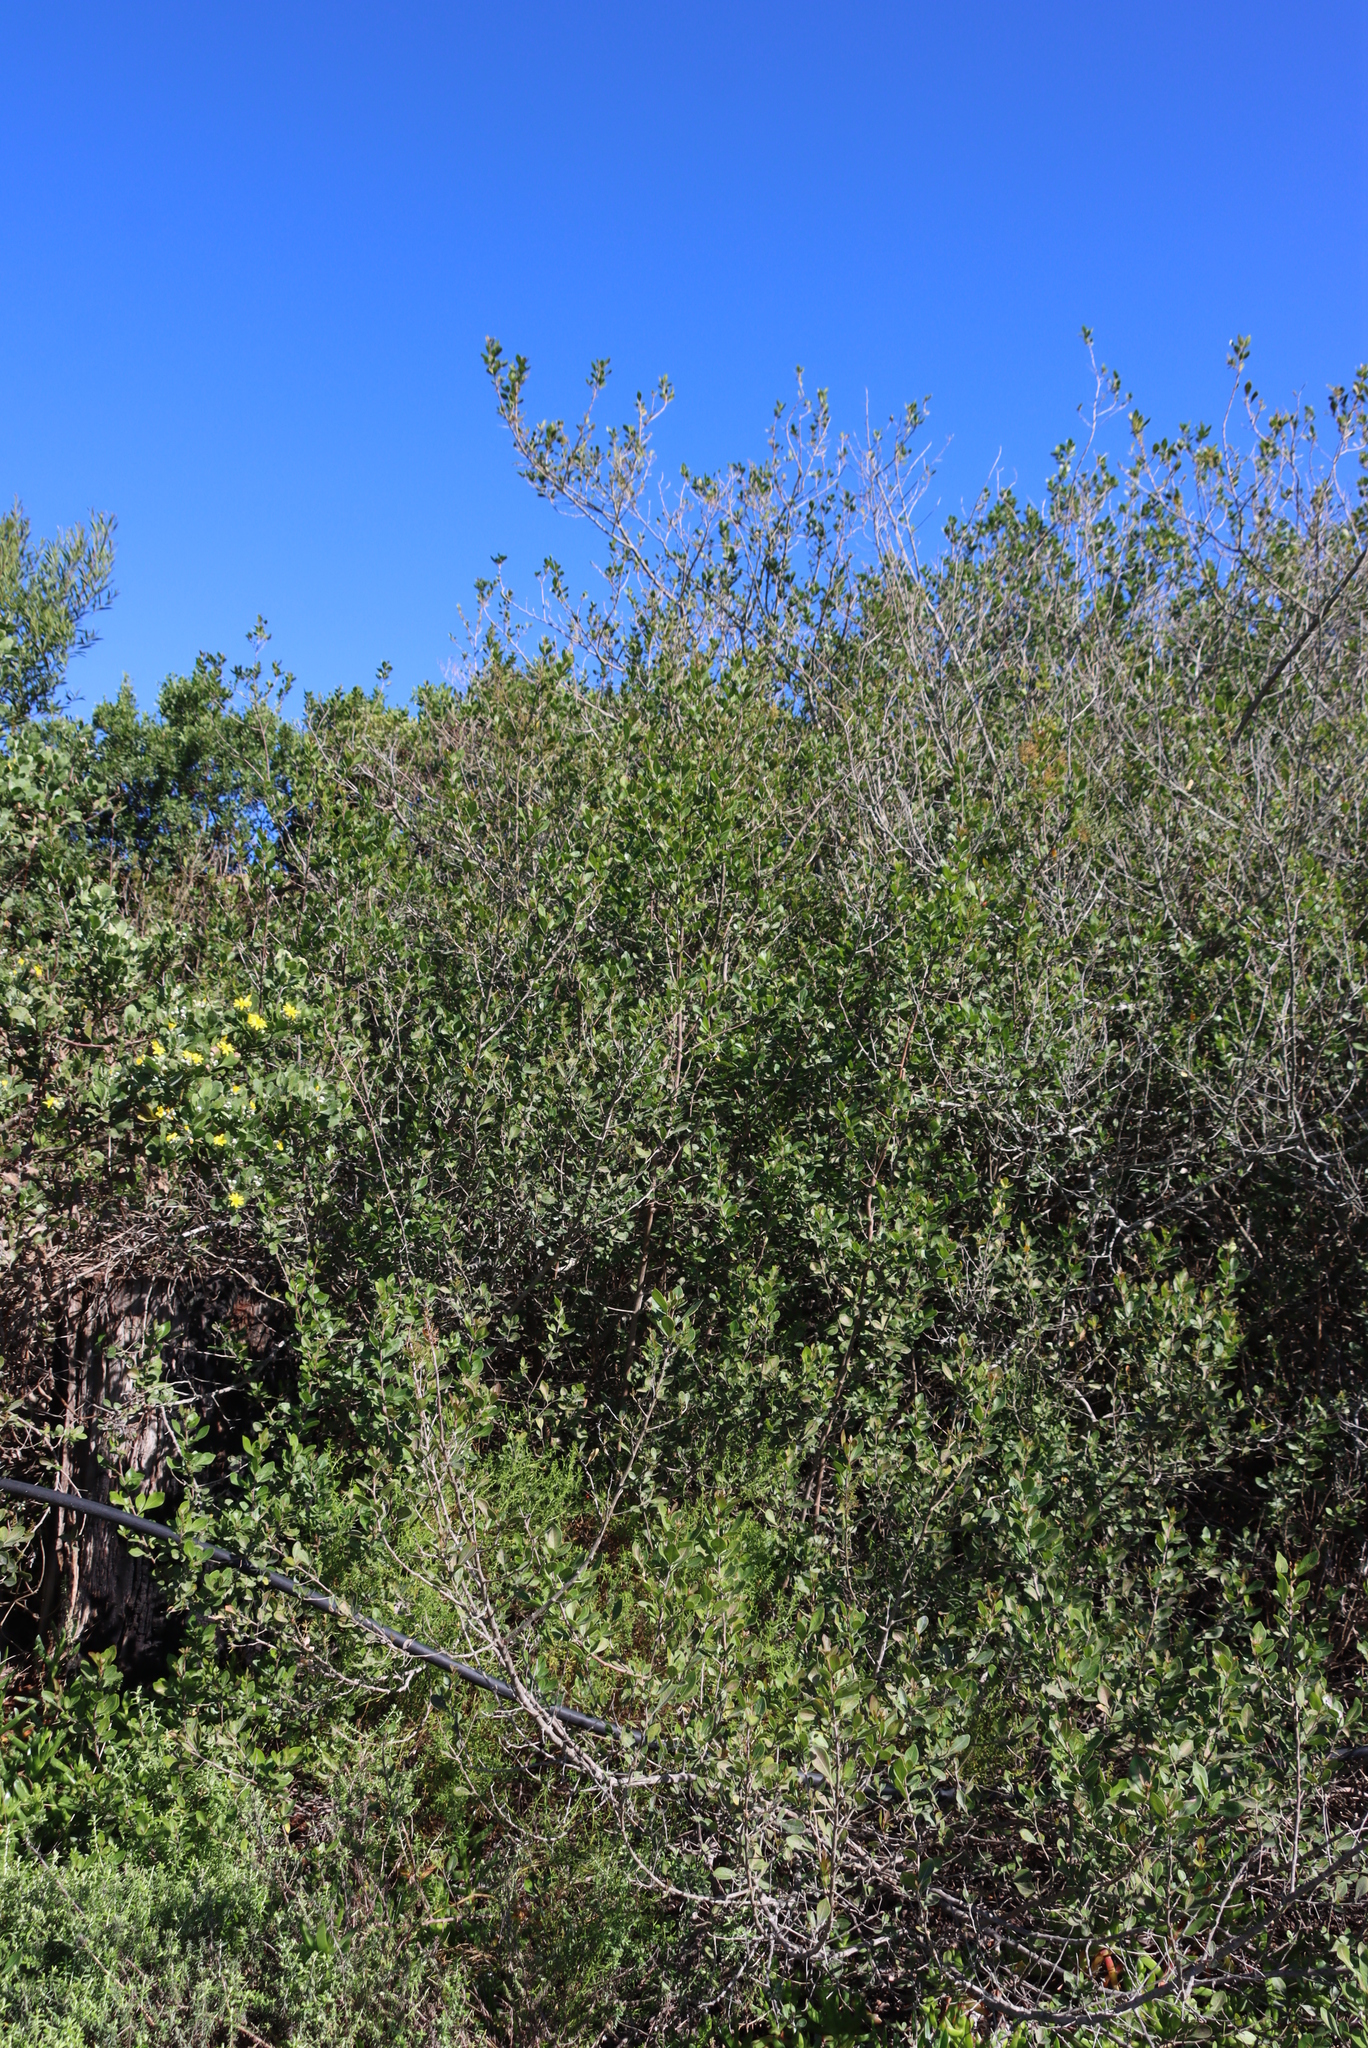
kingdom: Plantae
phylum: Tracheophyta
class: Magnoliopsida
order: Sapindales
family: Anacardiaceae
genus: Searsia
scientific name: Searsia lucida
